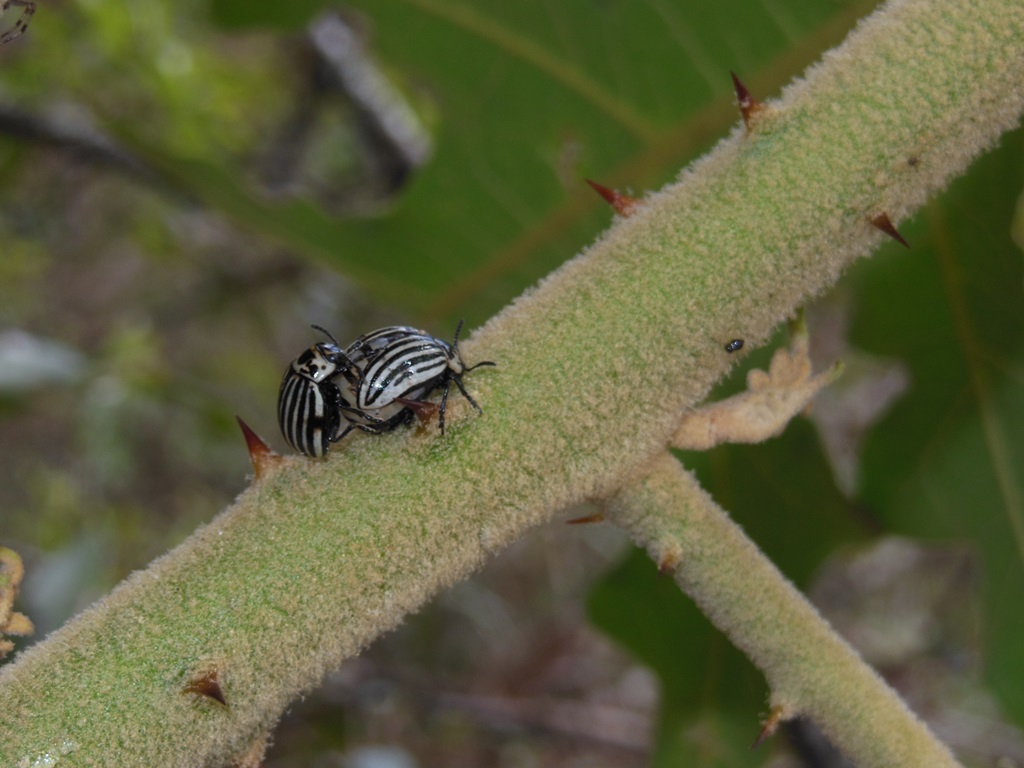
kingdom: Animalia
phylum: Arthropoda
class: Insecta
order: Coleoptera
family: Chrysomelidae
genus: Leptinotarsa
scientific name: Leptinotarsa
